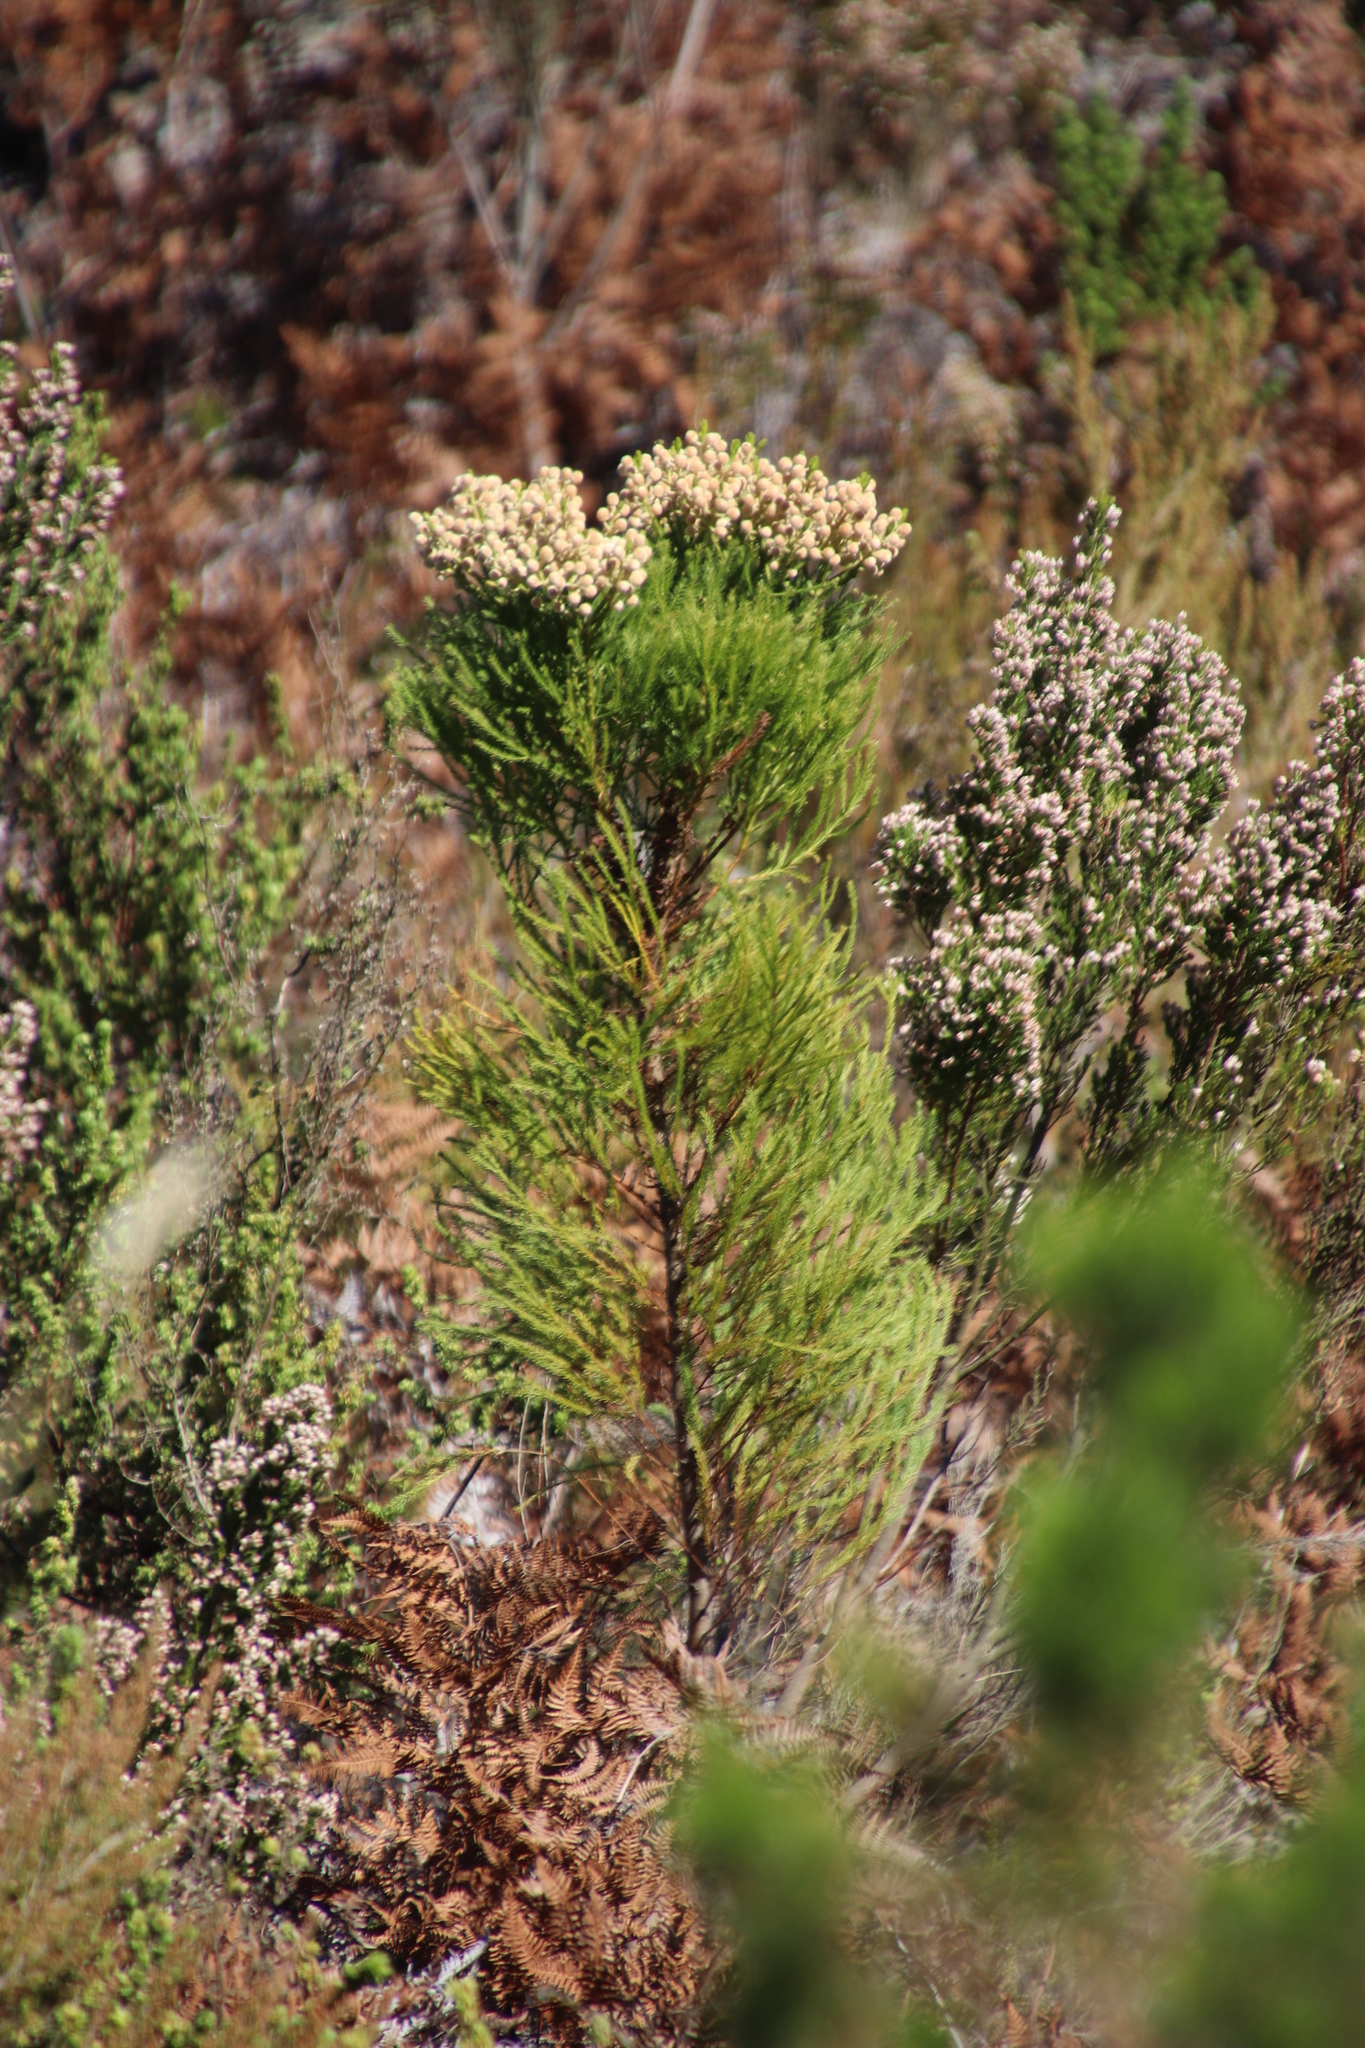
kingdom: Plantae
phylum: Tracheophyta
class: Magnoliopsida
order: Bruniales
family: Bruniaceae
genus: Berzelia
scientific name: Berzelia lanuginosa
